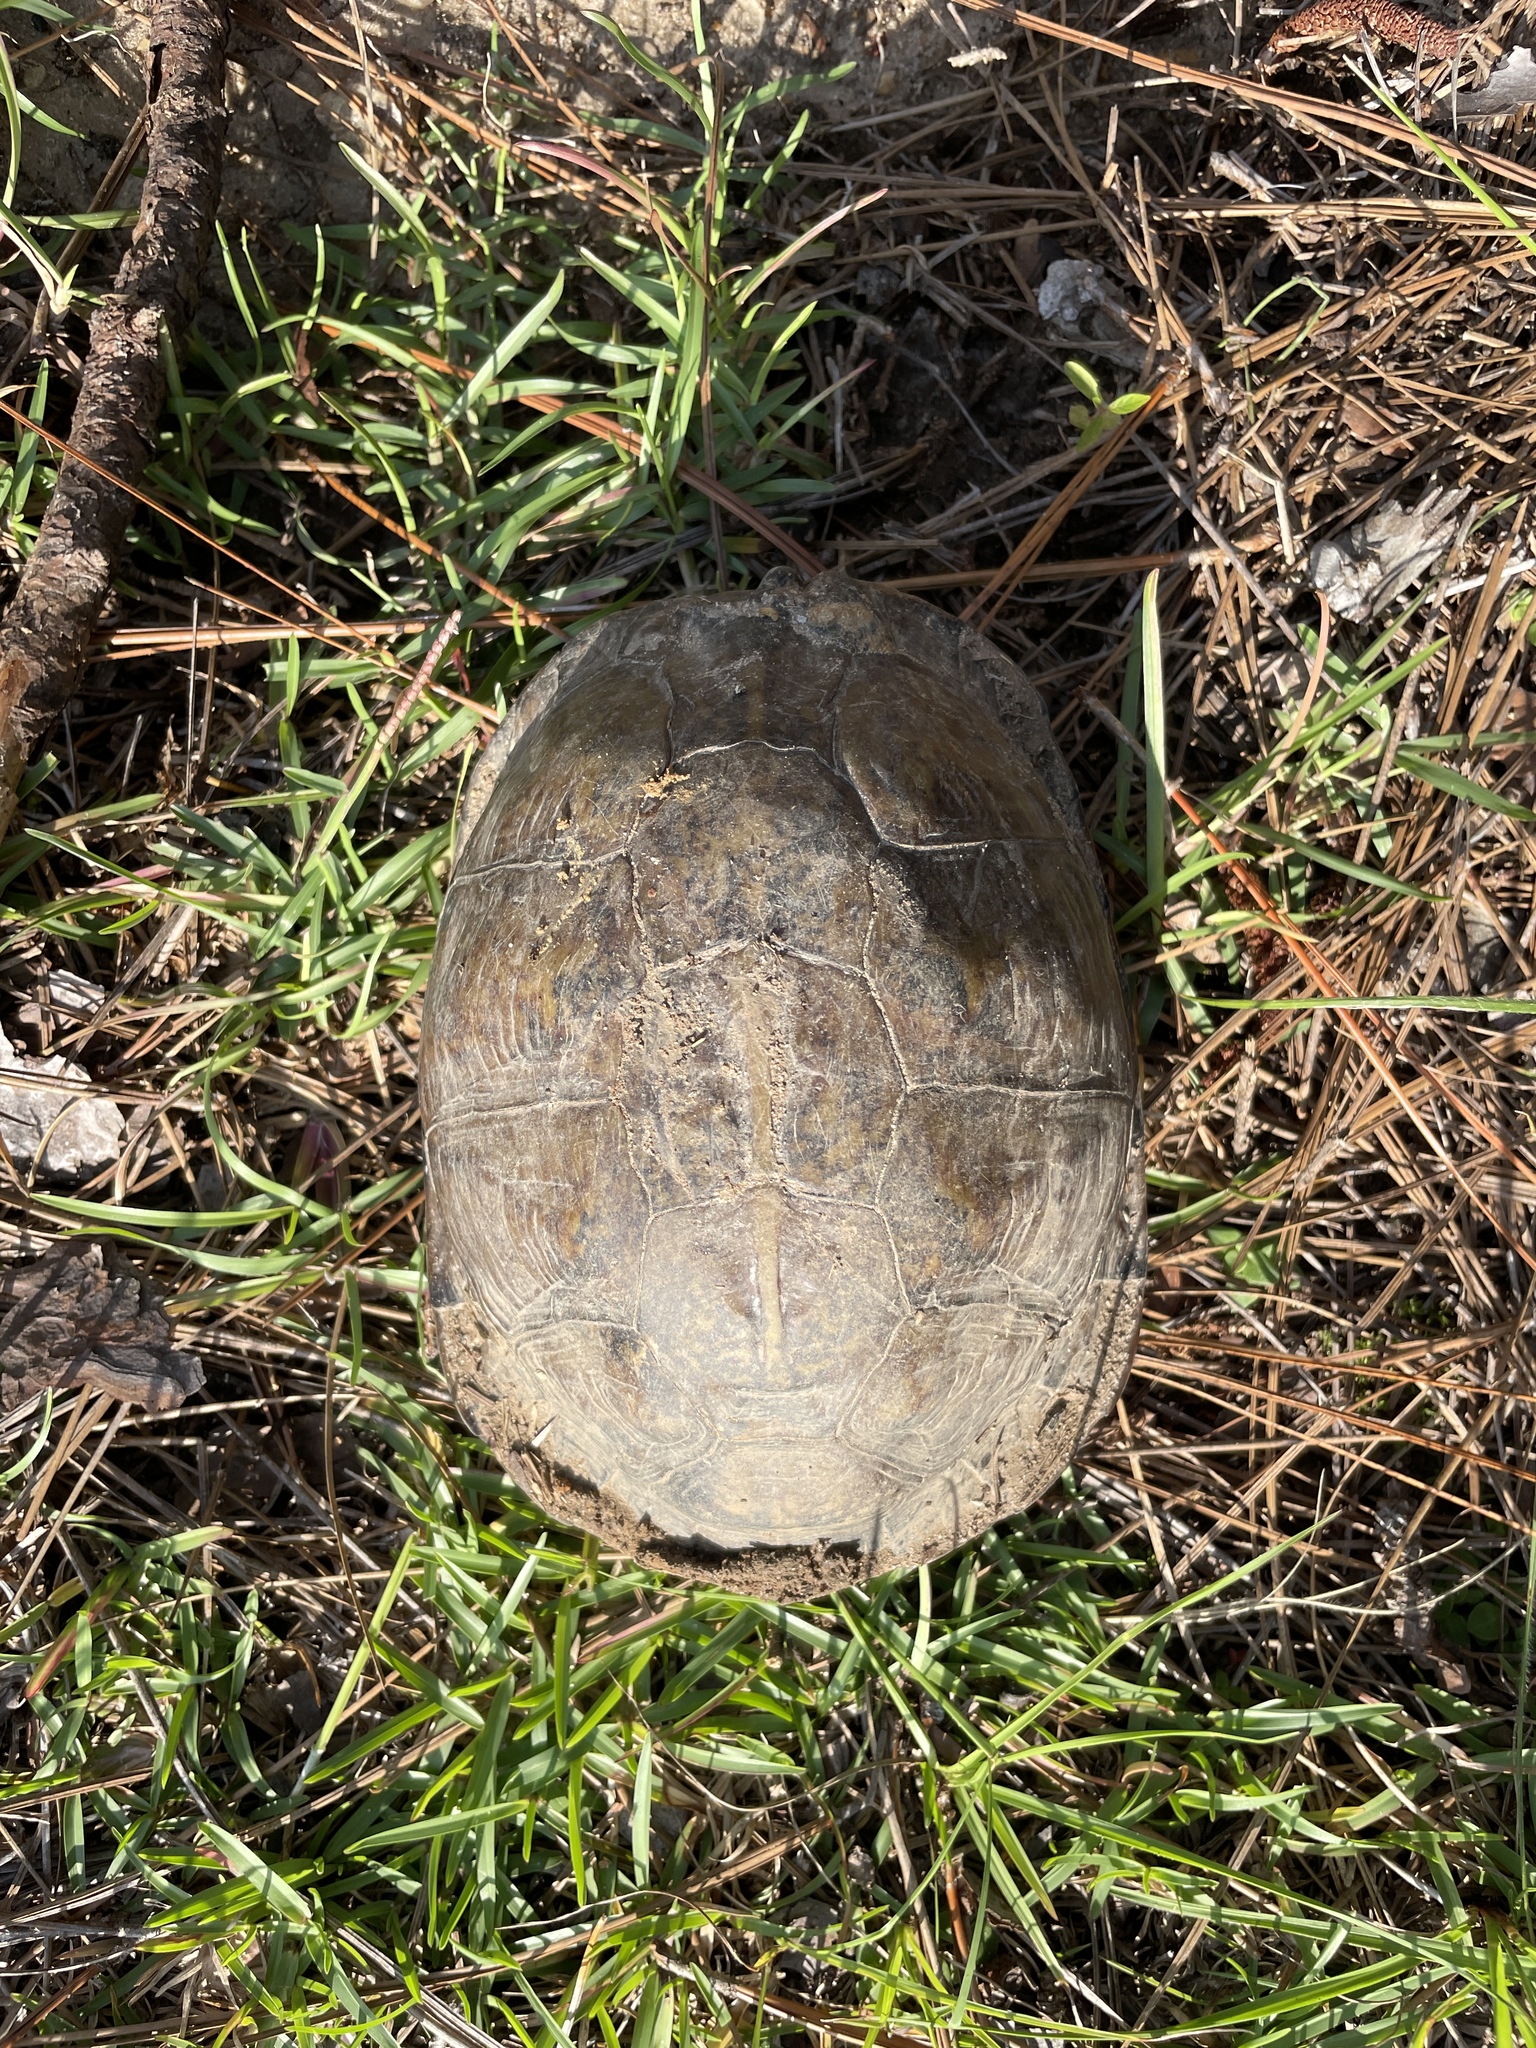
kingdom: Animalia
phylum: Chordata
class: Testudines
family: Emydidae
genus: Terrapene
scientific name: Terrapene carolina
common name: Common box turtle
